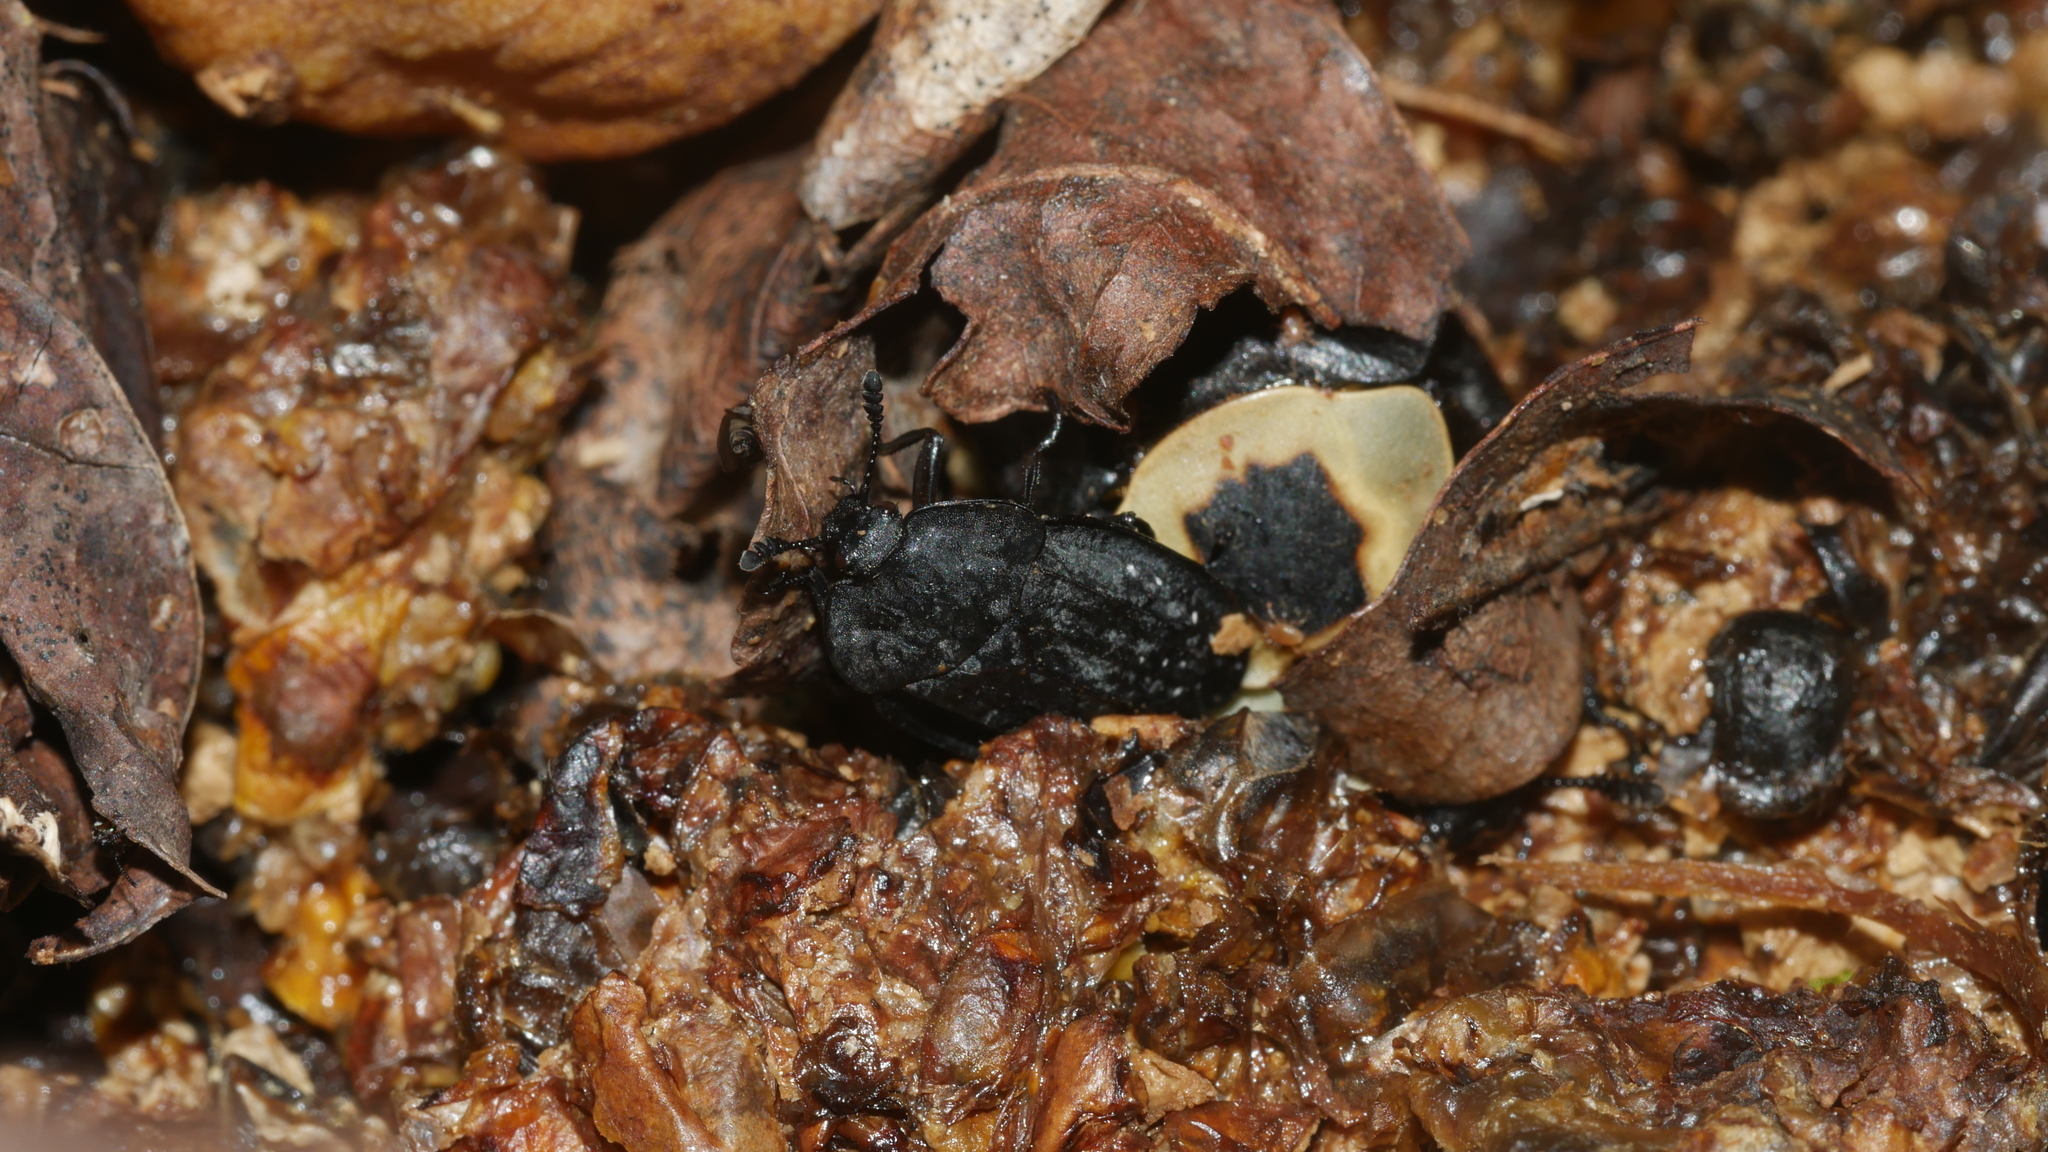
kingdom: Animalia
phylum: Arthropoda
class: Insecta
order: Coleoptera
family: Staphylinidae
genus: Oiceoptoma
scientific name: Oiceoptoma inaequale
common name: Ridged carrion beetle
